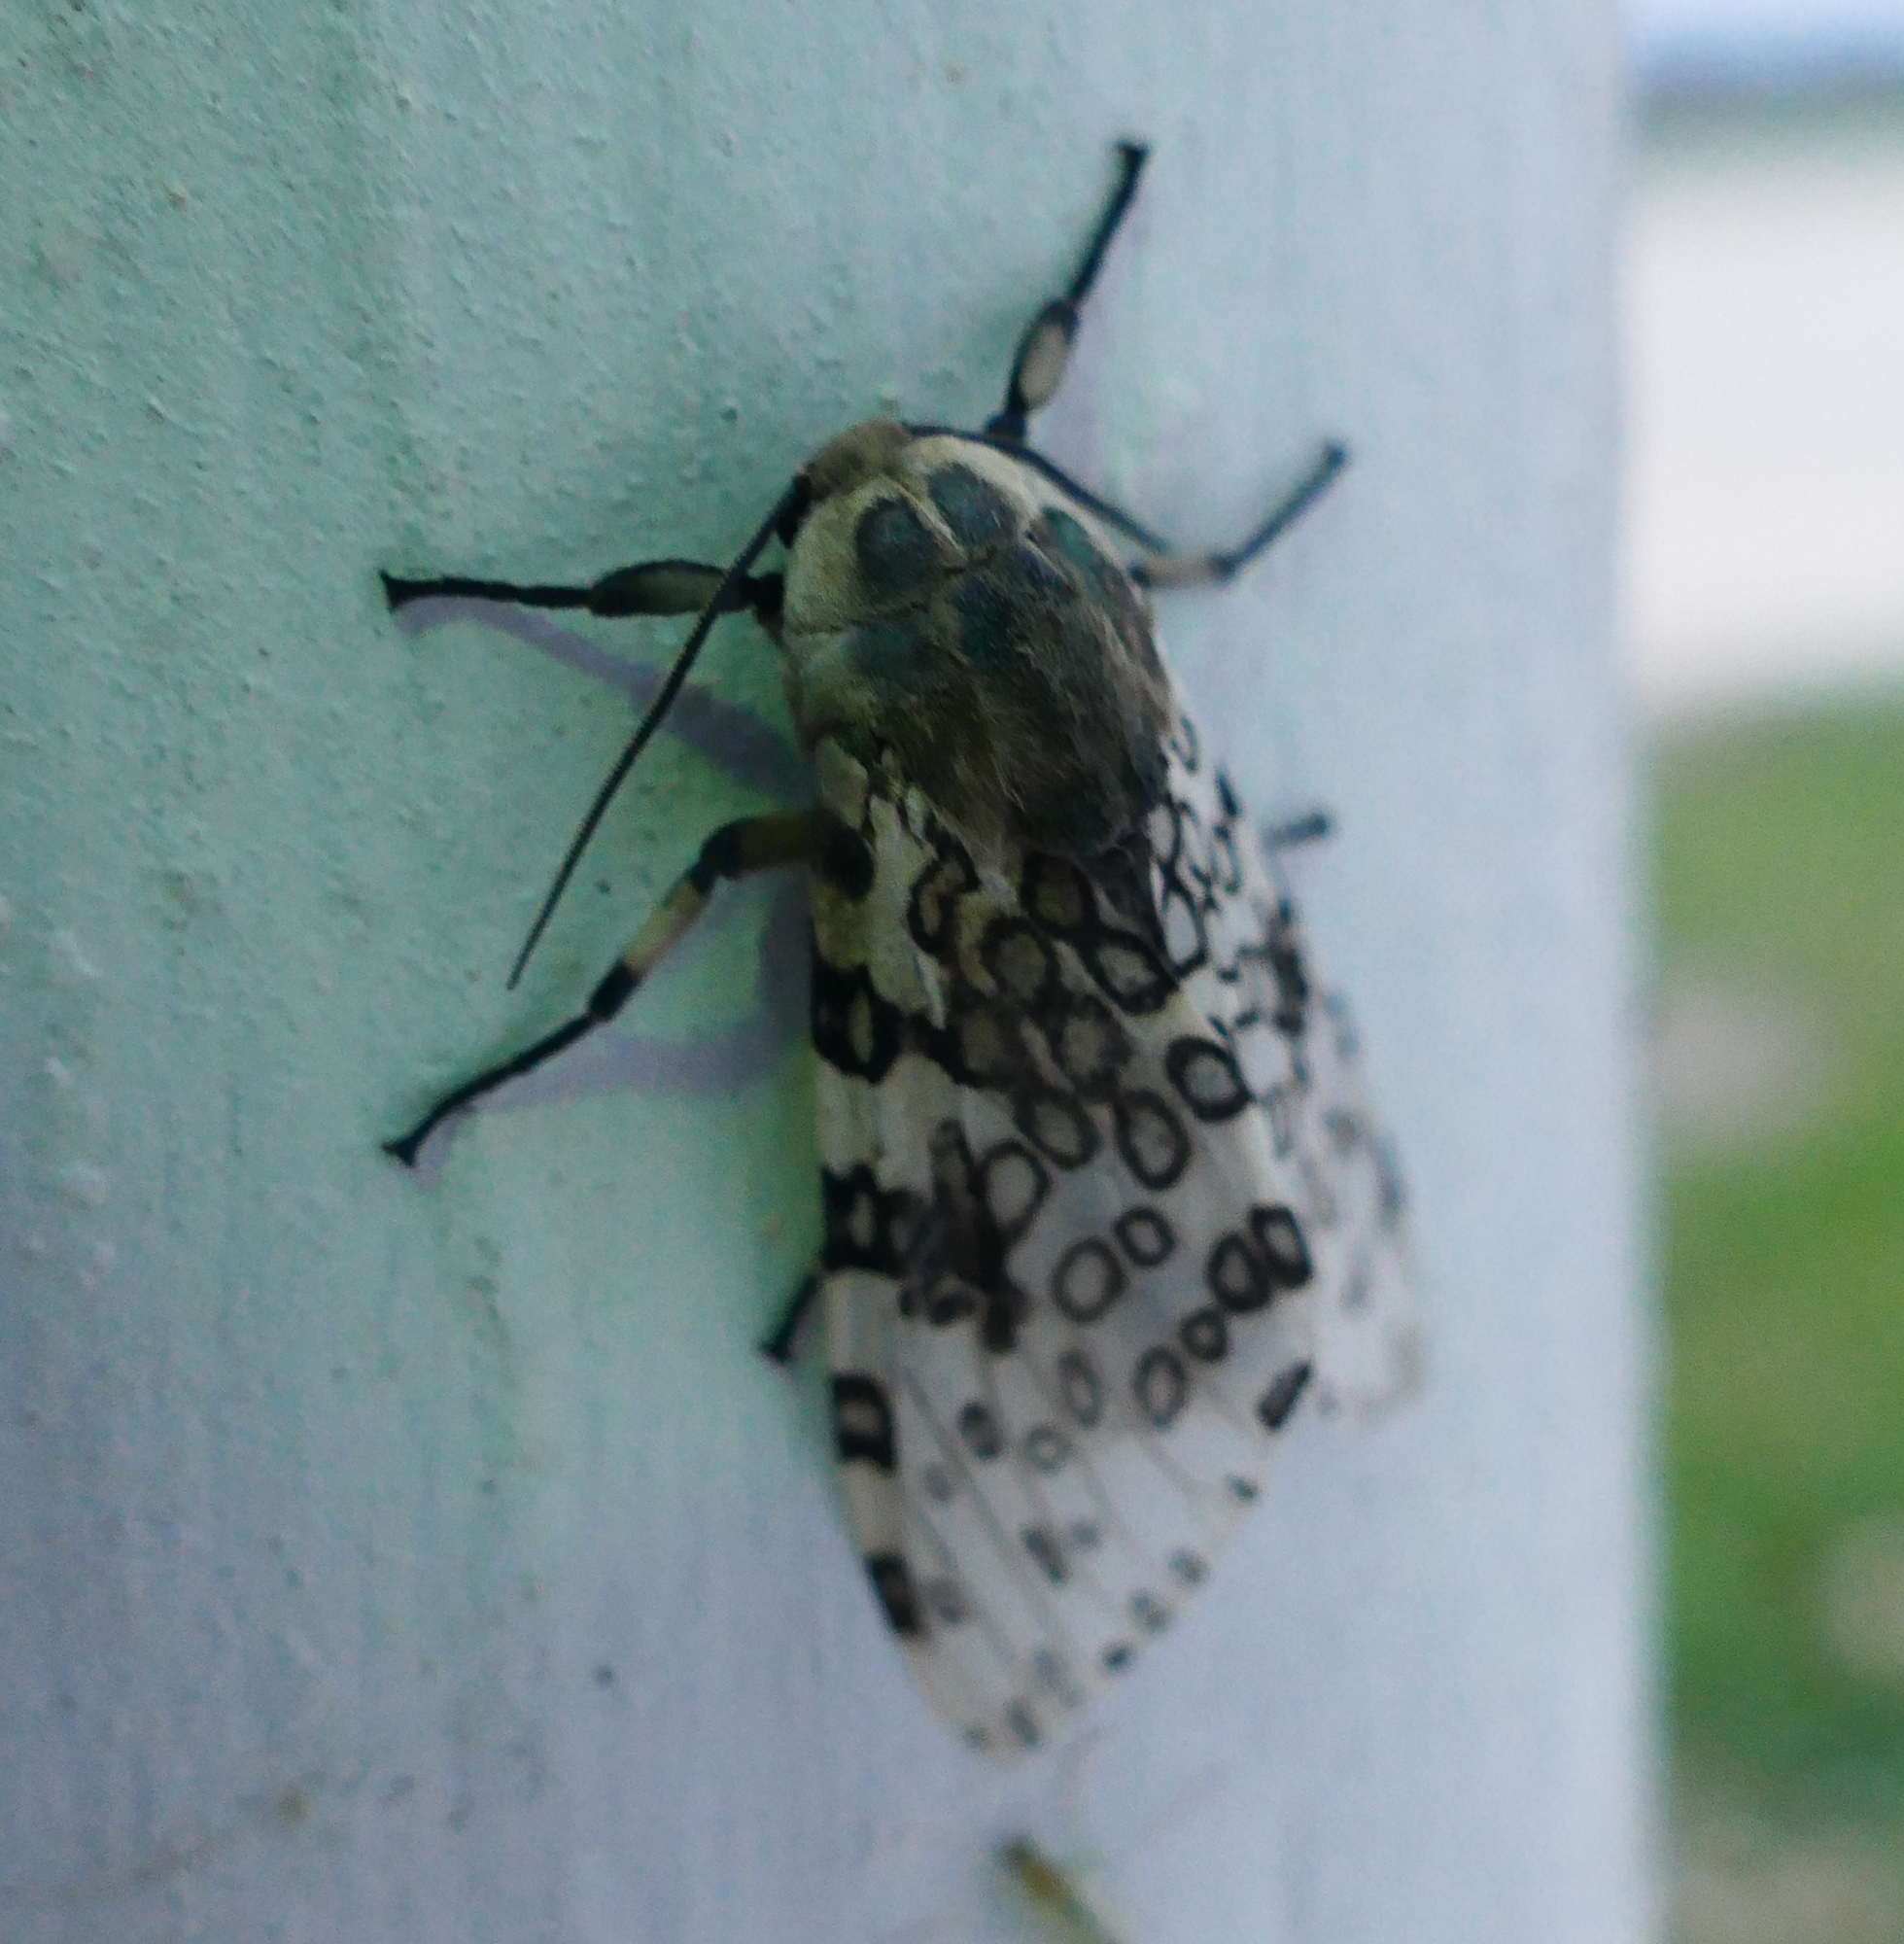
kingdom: Animalia
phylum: Arthropoda
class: Insecta
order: Lepidoptera
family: Erebidae
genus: Hypercompe
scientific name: Hypercompe scribonia
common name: Giant leopard moth
